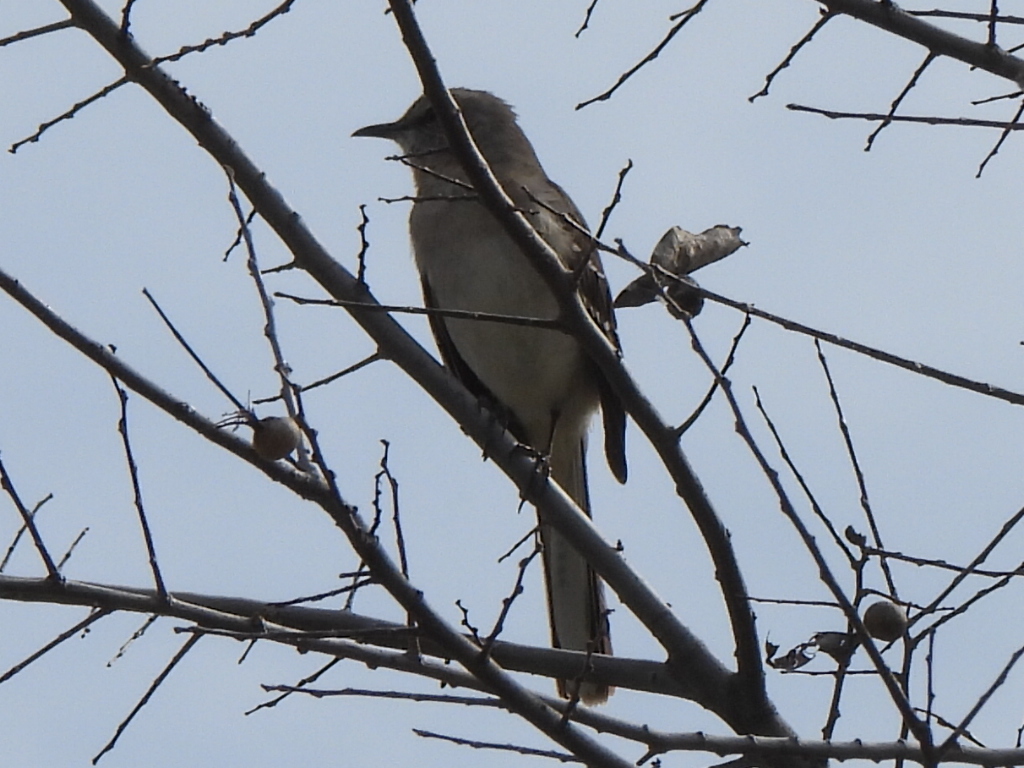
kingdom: Animalia
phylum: Chordata
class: Aves
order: Passeriformes
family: Mimidae
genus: Mimus
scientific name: Mimus polyglottos
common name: Northern mockingbird
